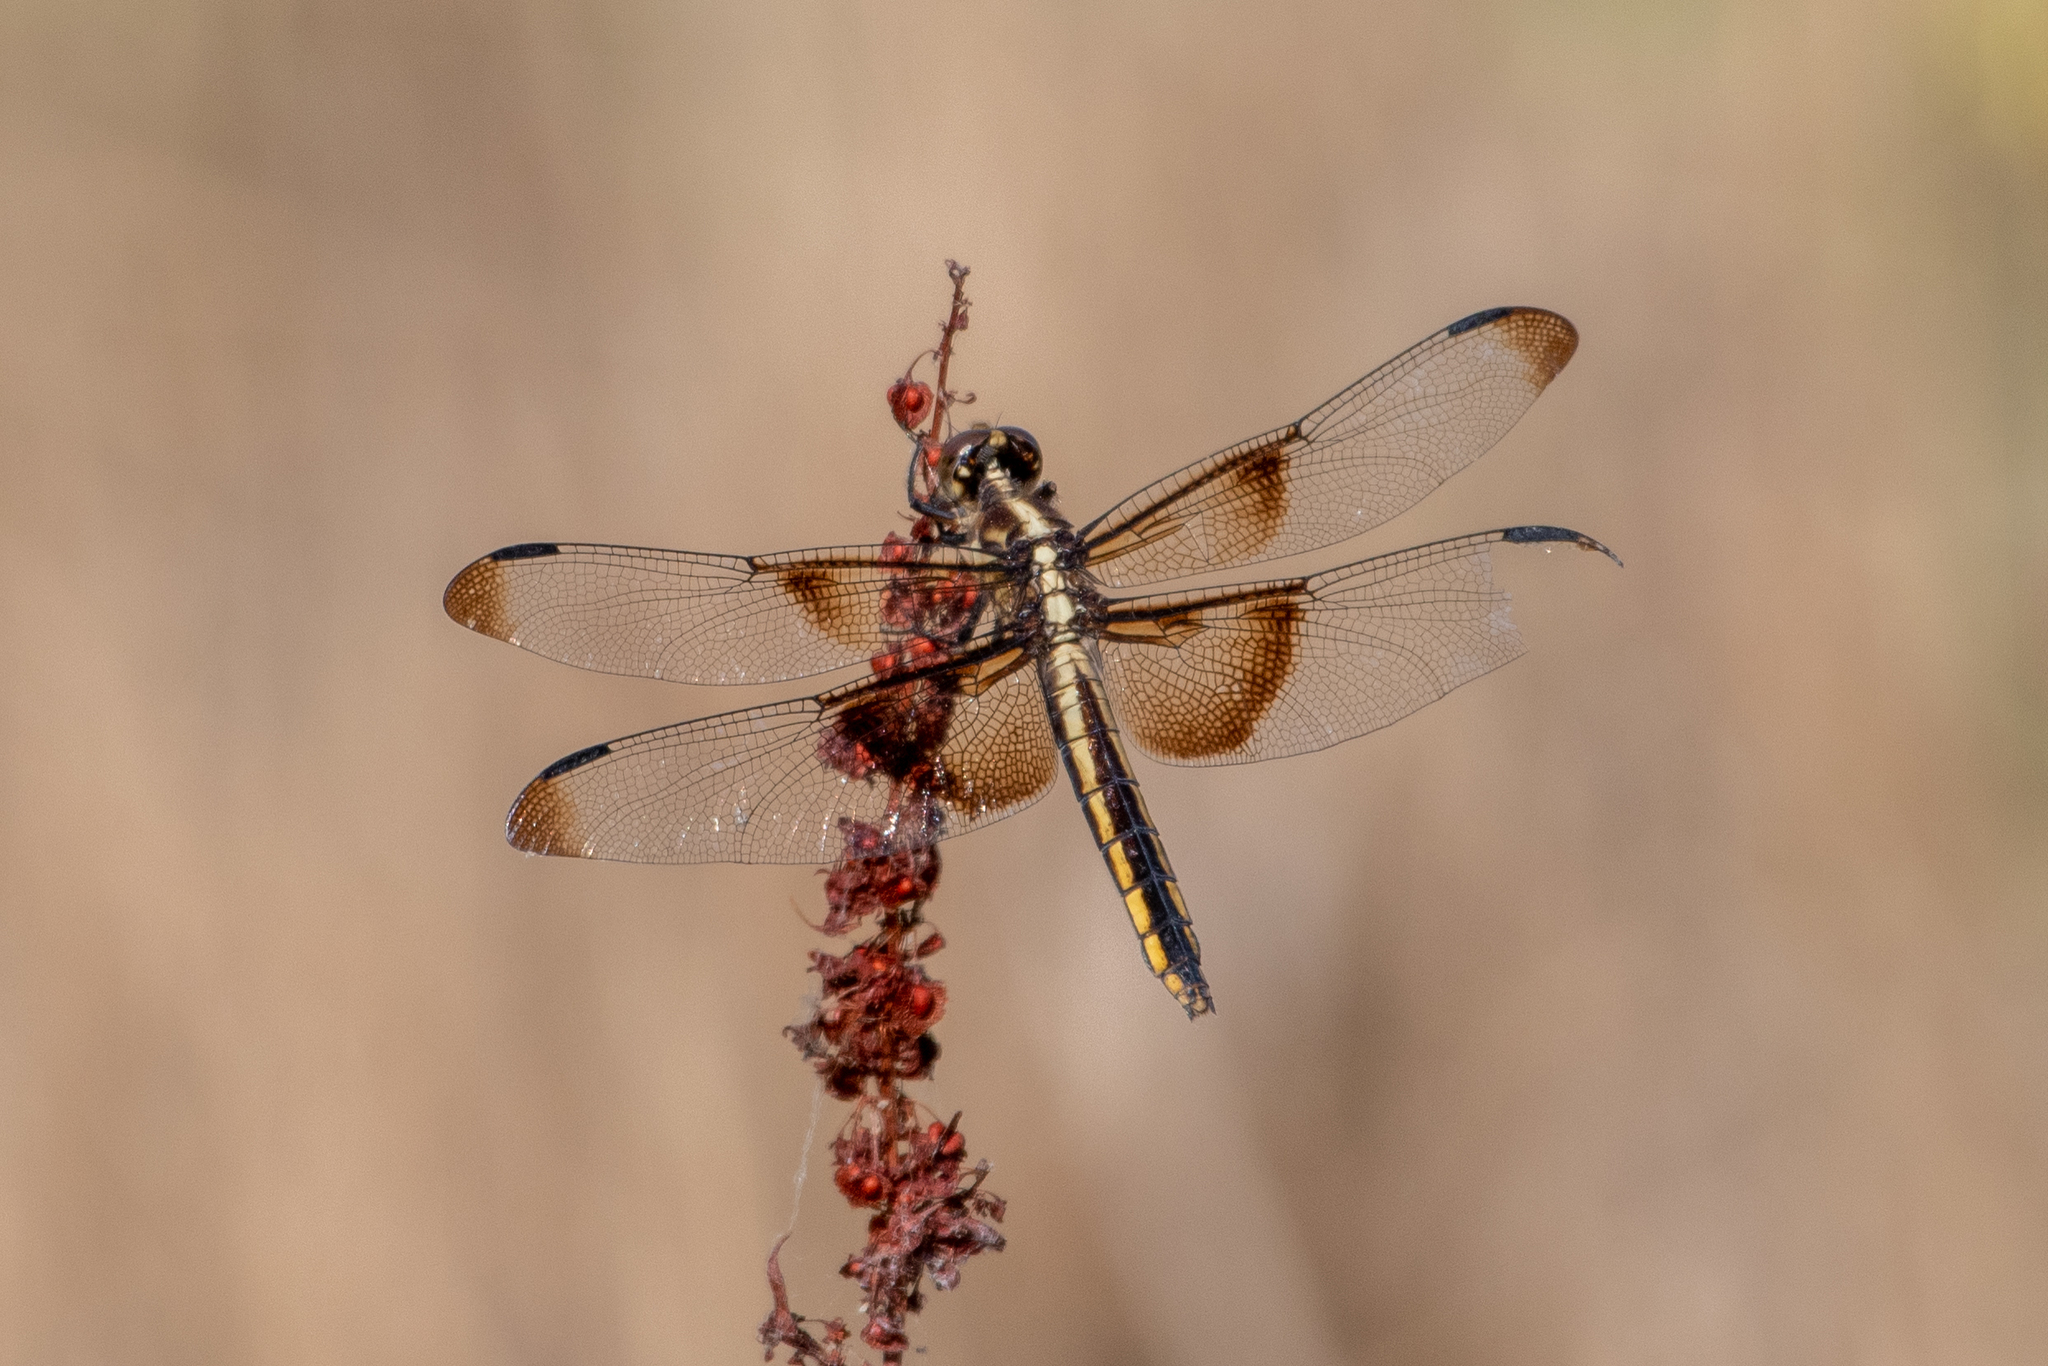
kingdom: Animalia
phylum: Arthropoda
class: Insecta
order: Odonata
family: Libellulidae
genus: Libellula
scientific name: Libellula luctuosa
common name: Widow skimmer
